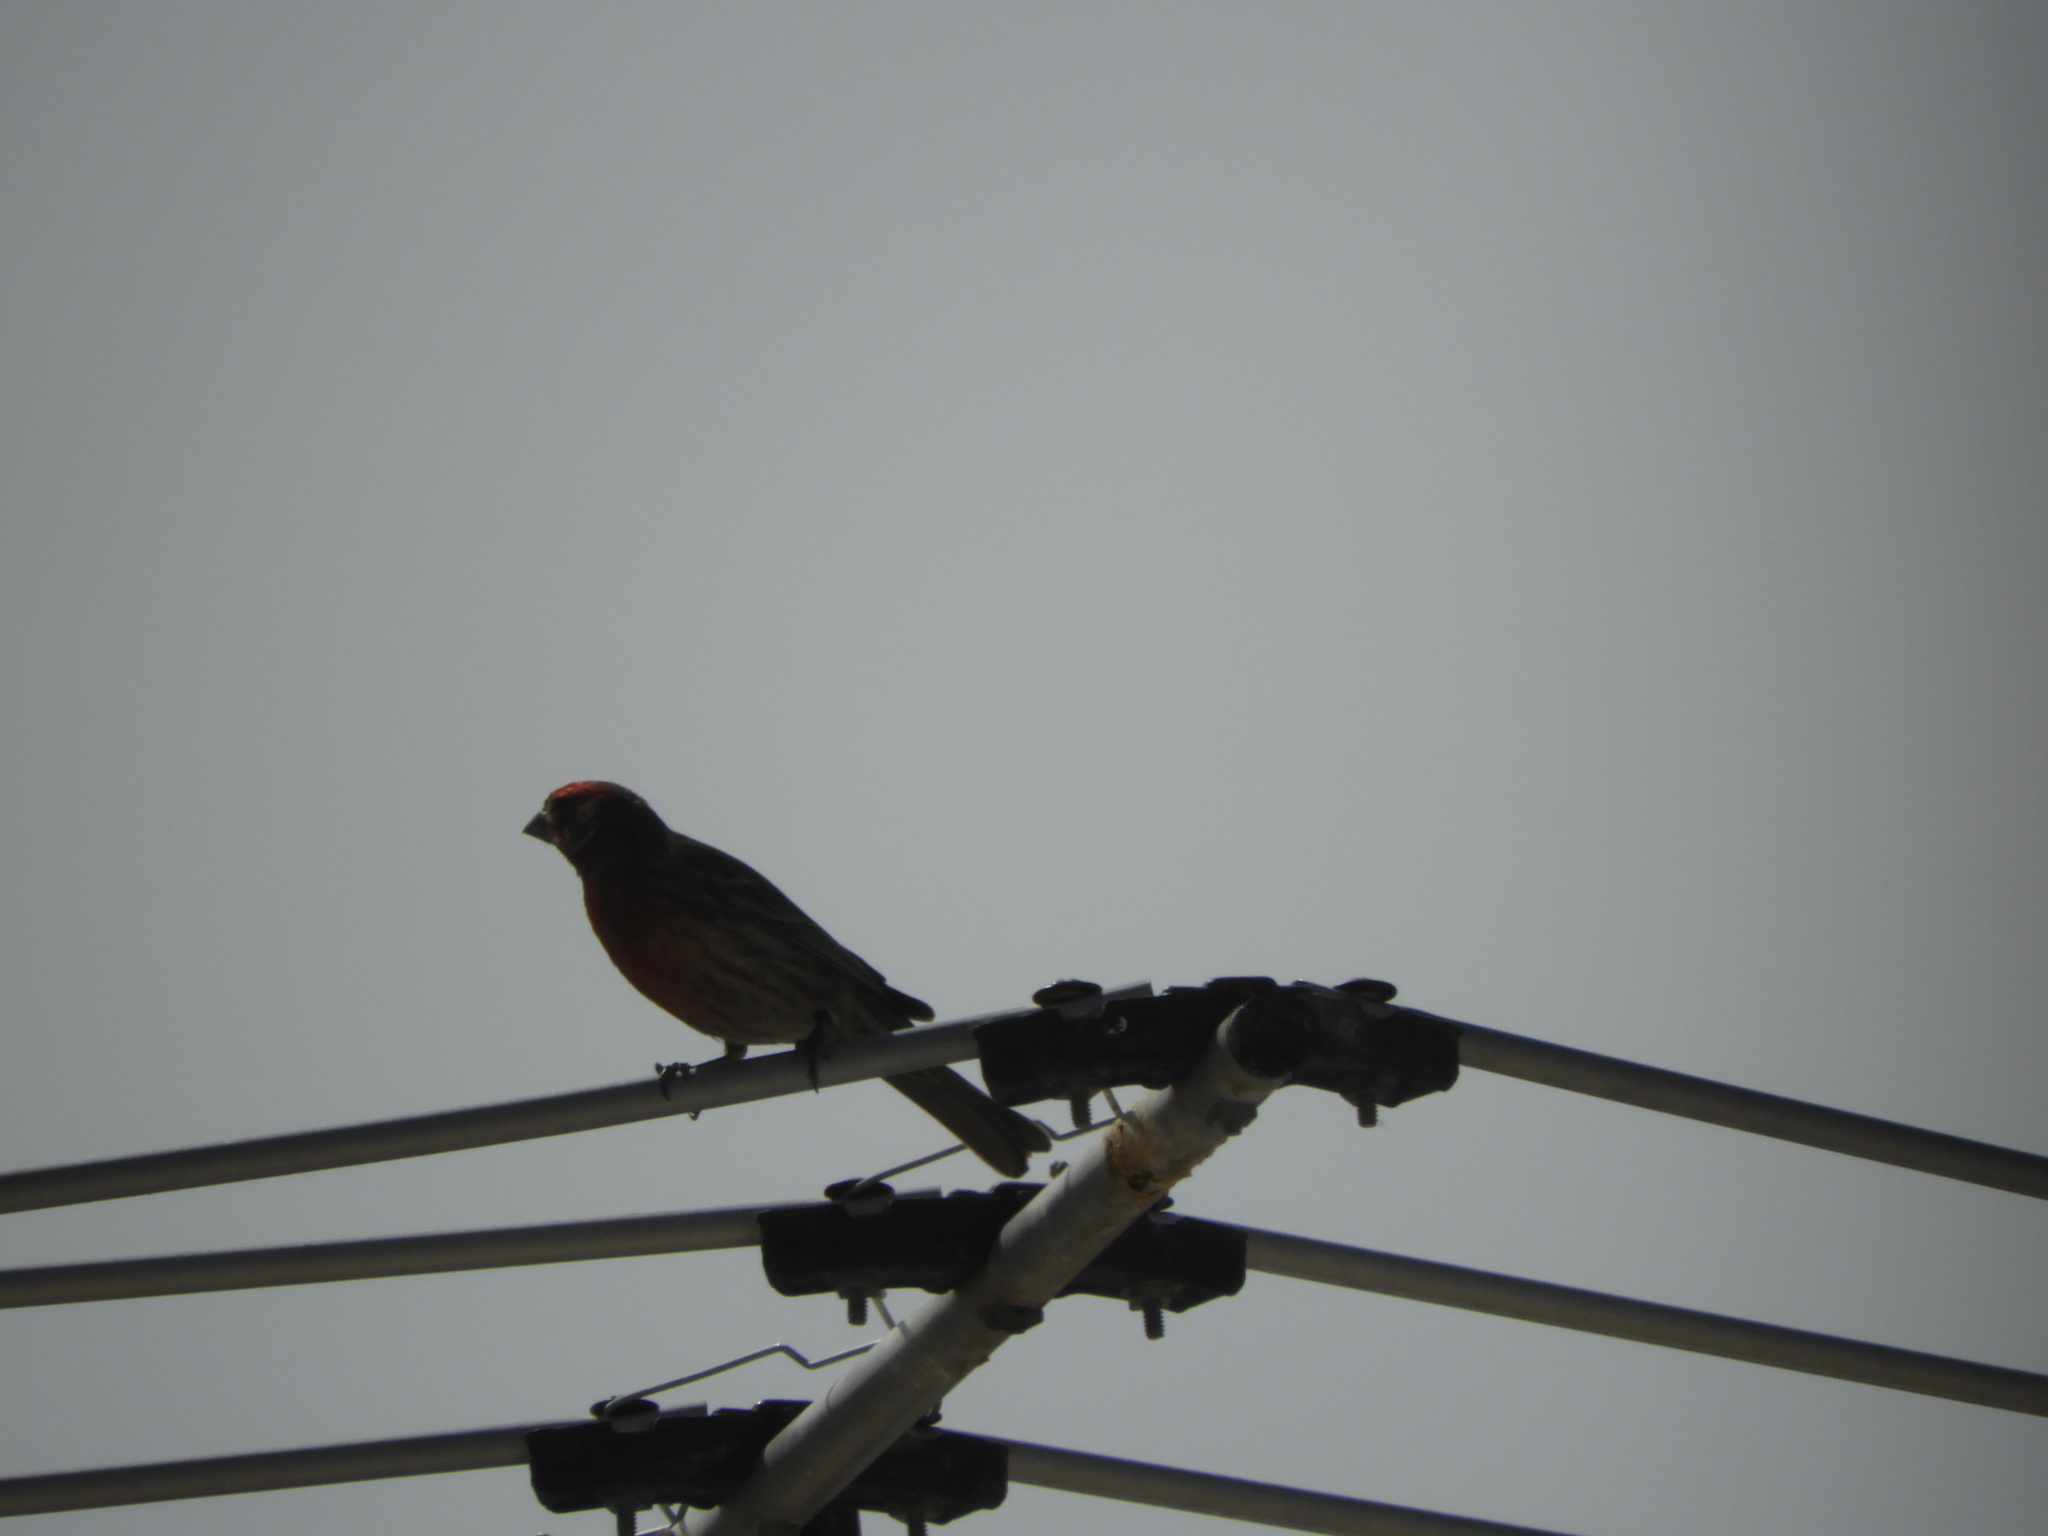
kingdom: Animalia
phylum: Chordata
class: Aves
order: Passeriformes
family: Fringillidae
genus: Haemorhous
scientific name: Haemorhous mexicanus
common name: House finch
